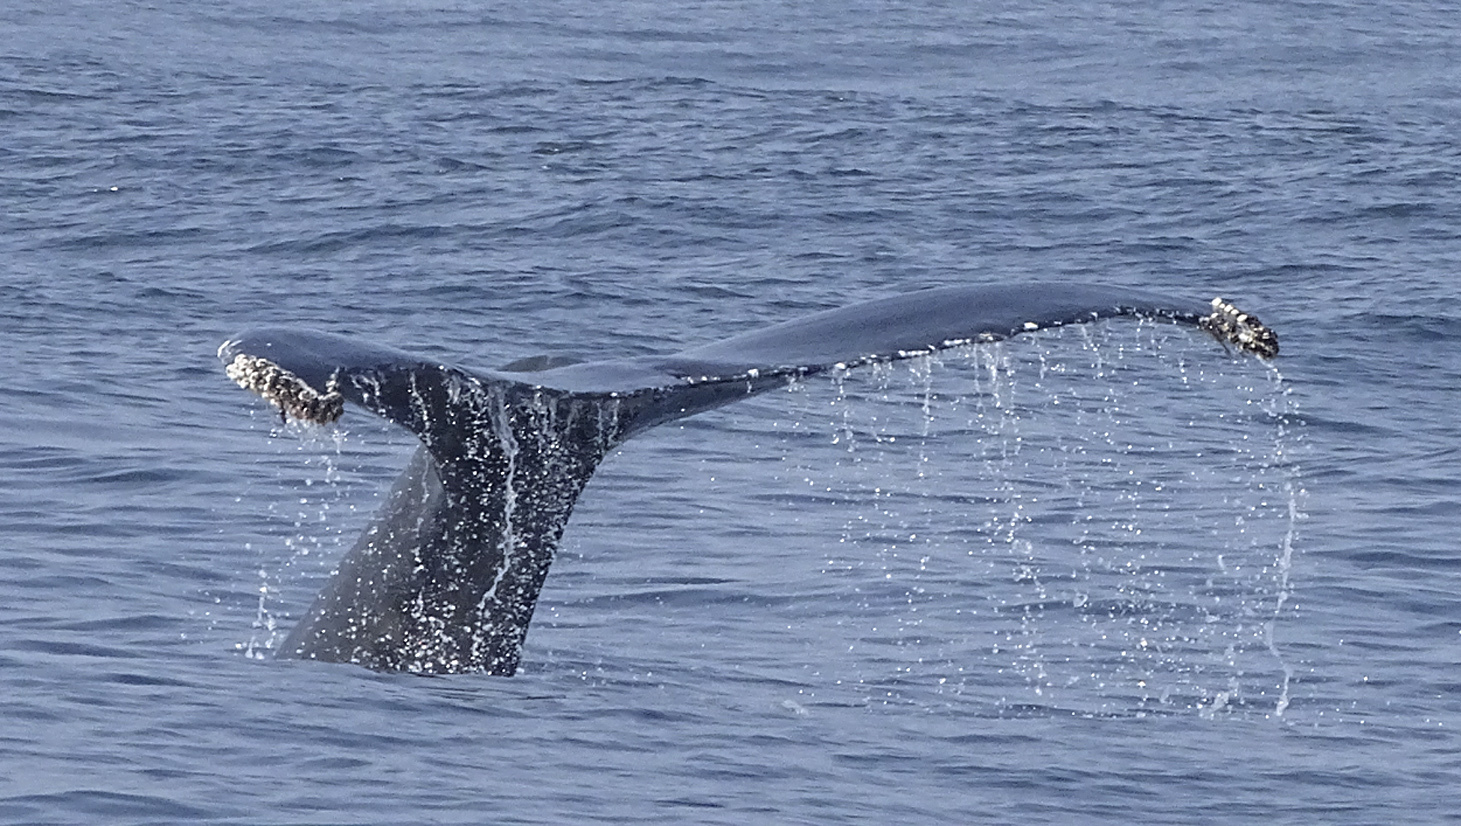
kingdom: Animalia
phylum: Chordata
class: Mammalia
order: Cetacea
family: Balaenopteridae
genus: Megaptera
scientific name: Megaptera novaeangliae
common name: Humpback whale
